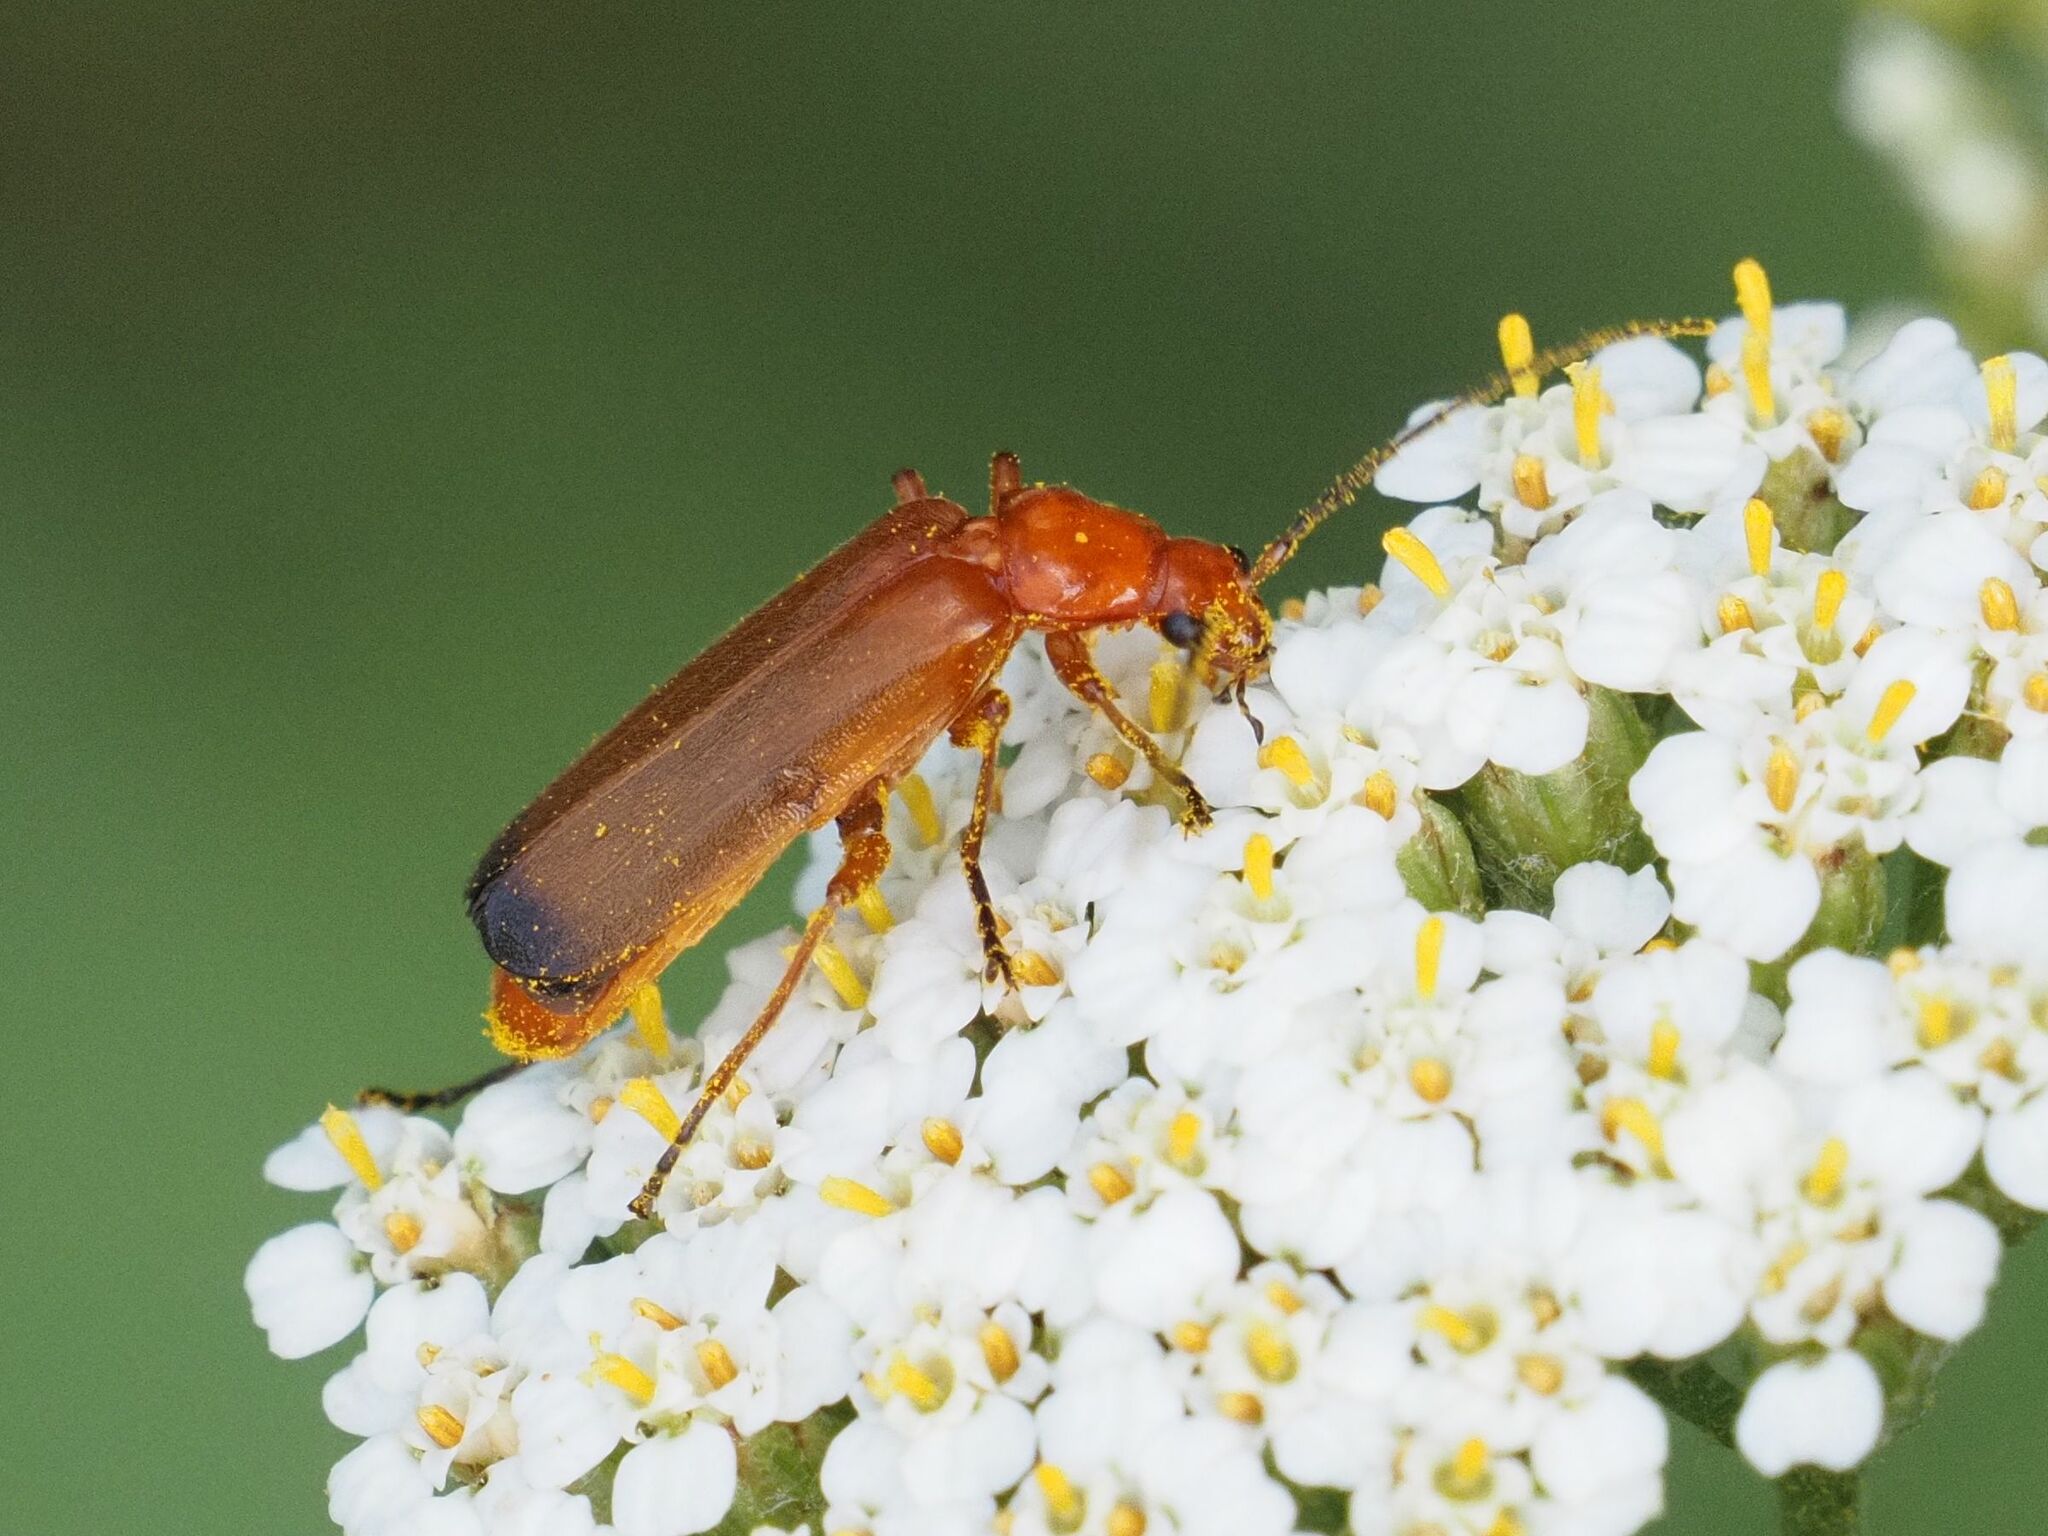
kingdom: Animalia
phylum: Arthropoda
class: Insecta
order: Coleoptera
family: Cantharidae
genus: Rhagonycha
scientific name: Rhagonycha fulva
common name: Common red soldier beetle
